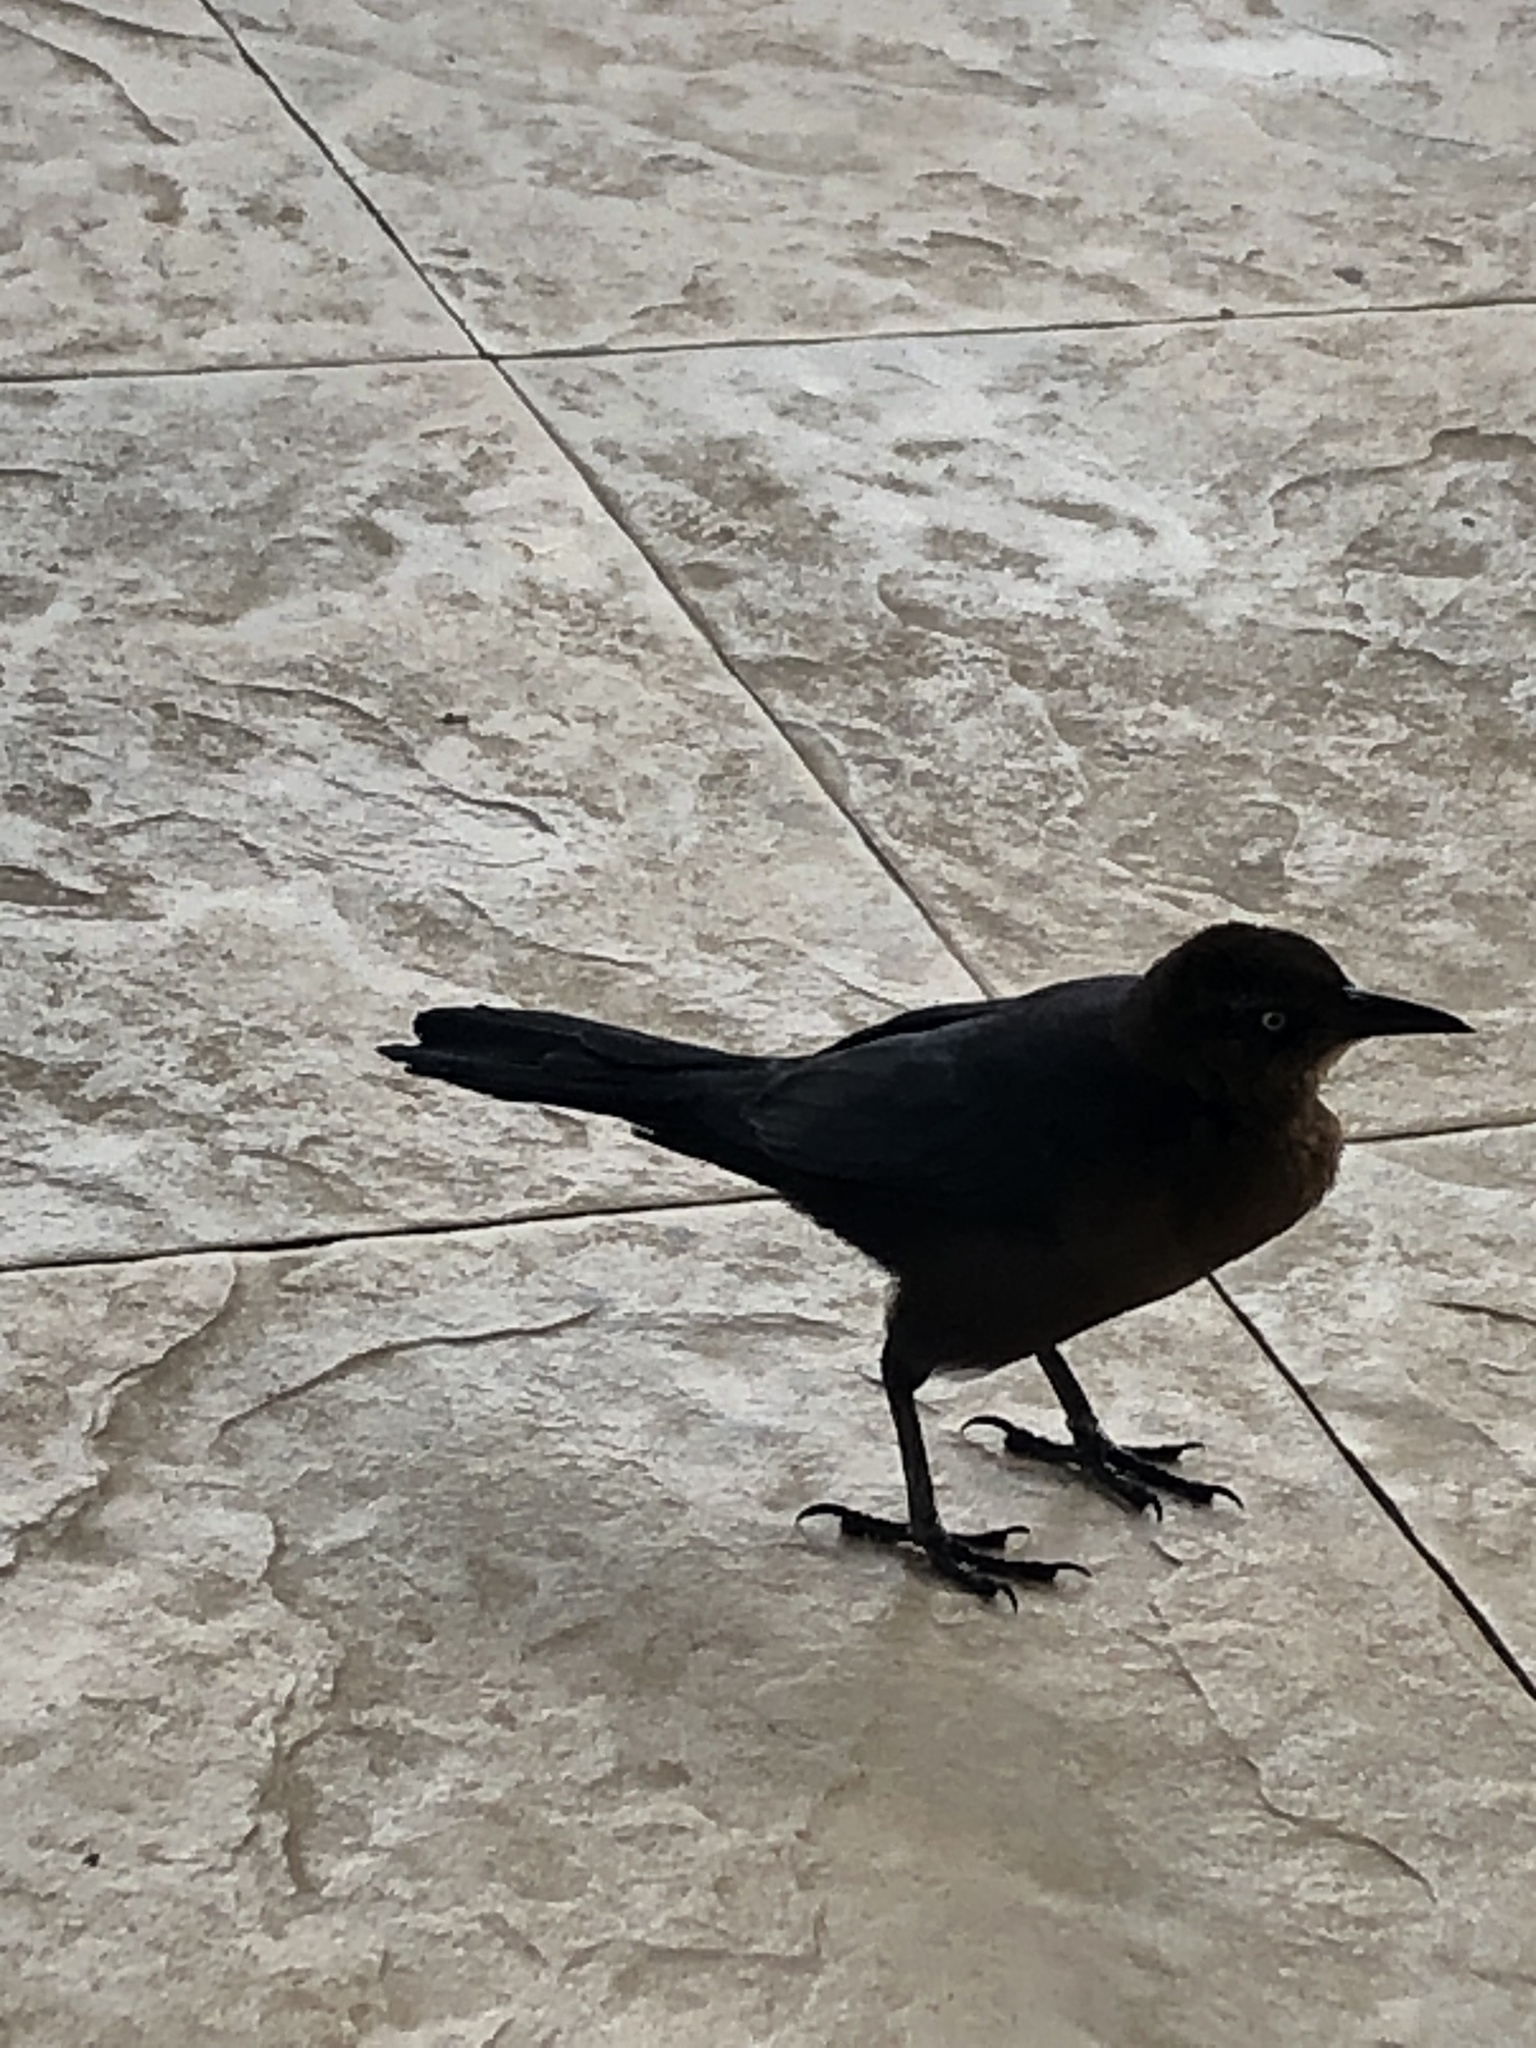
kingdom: Animalia
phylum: Chordata
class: Aves
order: Passeriformes
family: Icteridae
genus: Quiscalus
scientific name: Quiscalus mexicanus
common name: Great-tailed grackle
